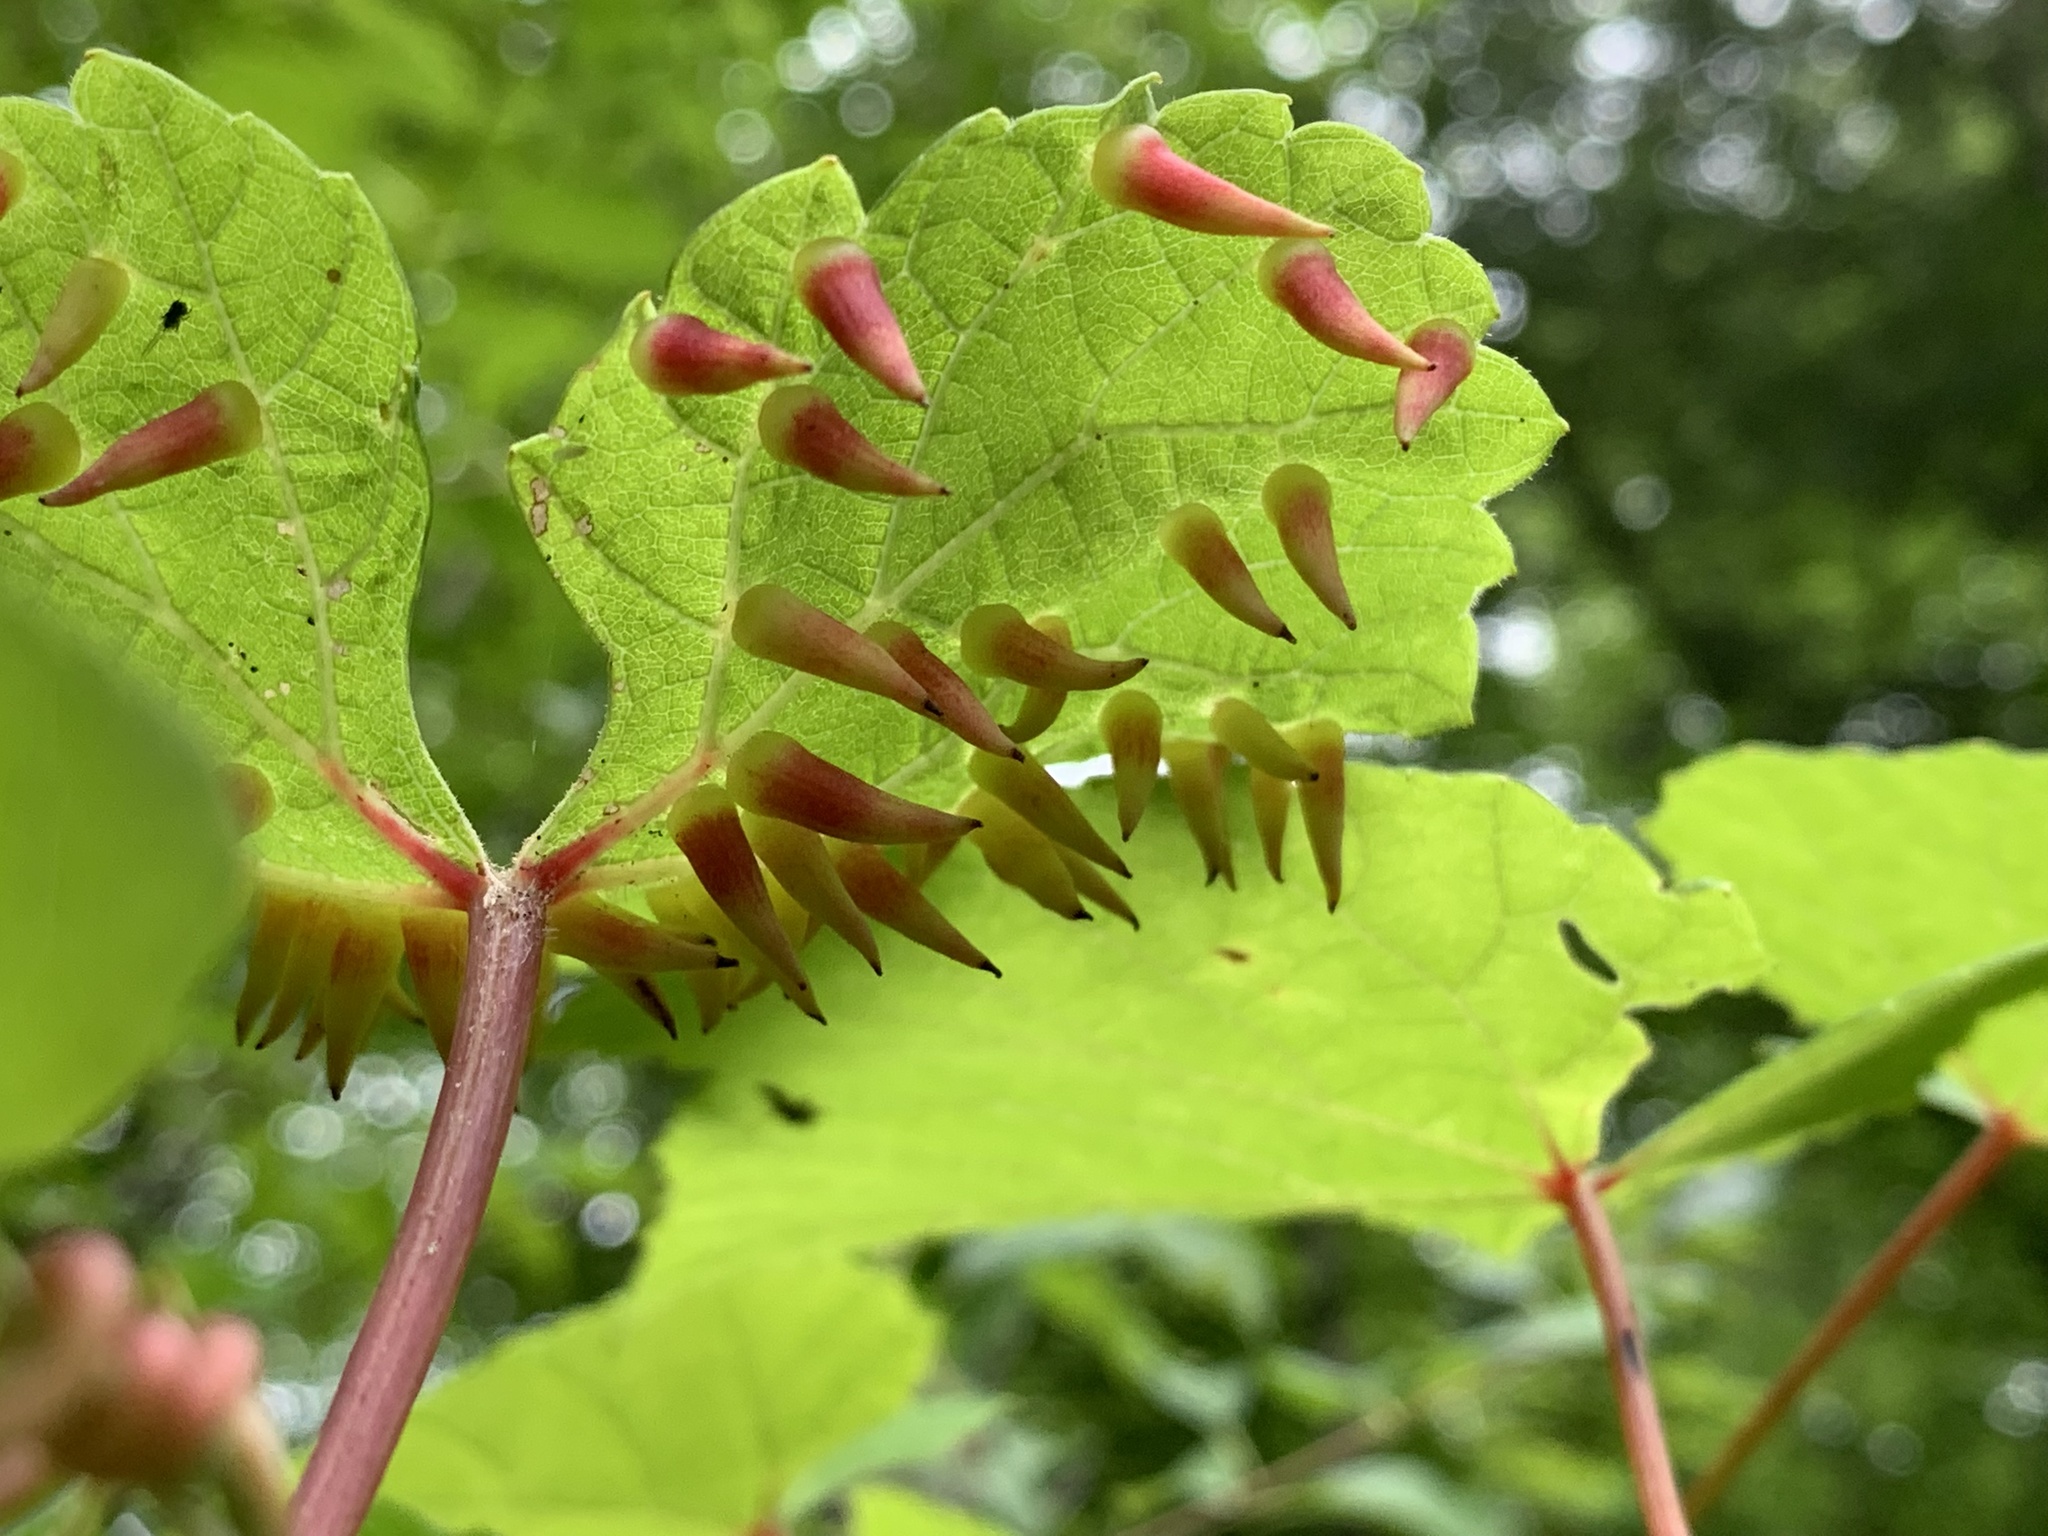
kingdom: Animalia
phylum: Arthropoda
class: Insecta
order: Diptera
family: Cecidomyiidae
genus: Ampelomyia
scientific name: Ampelomyia viticola
